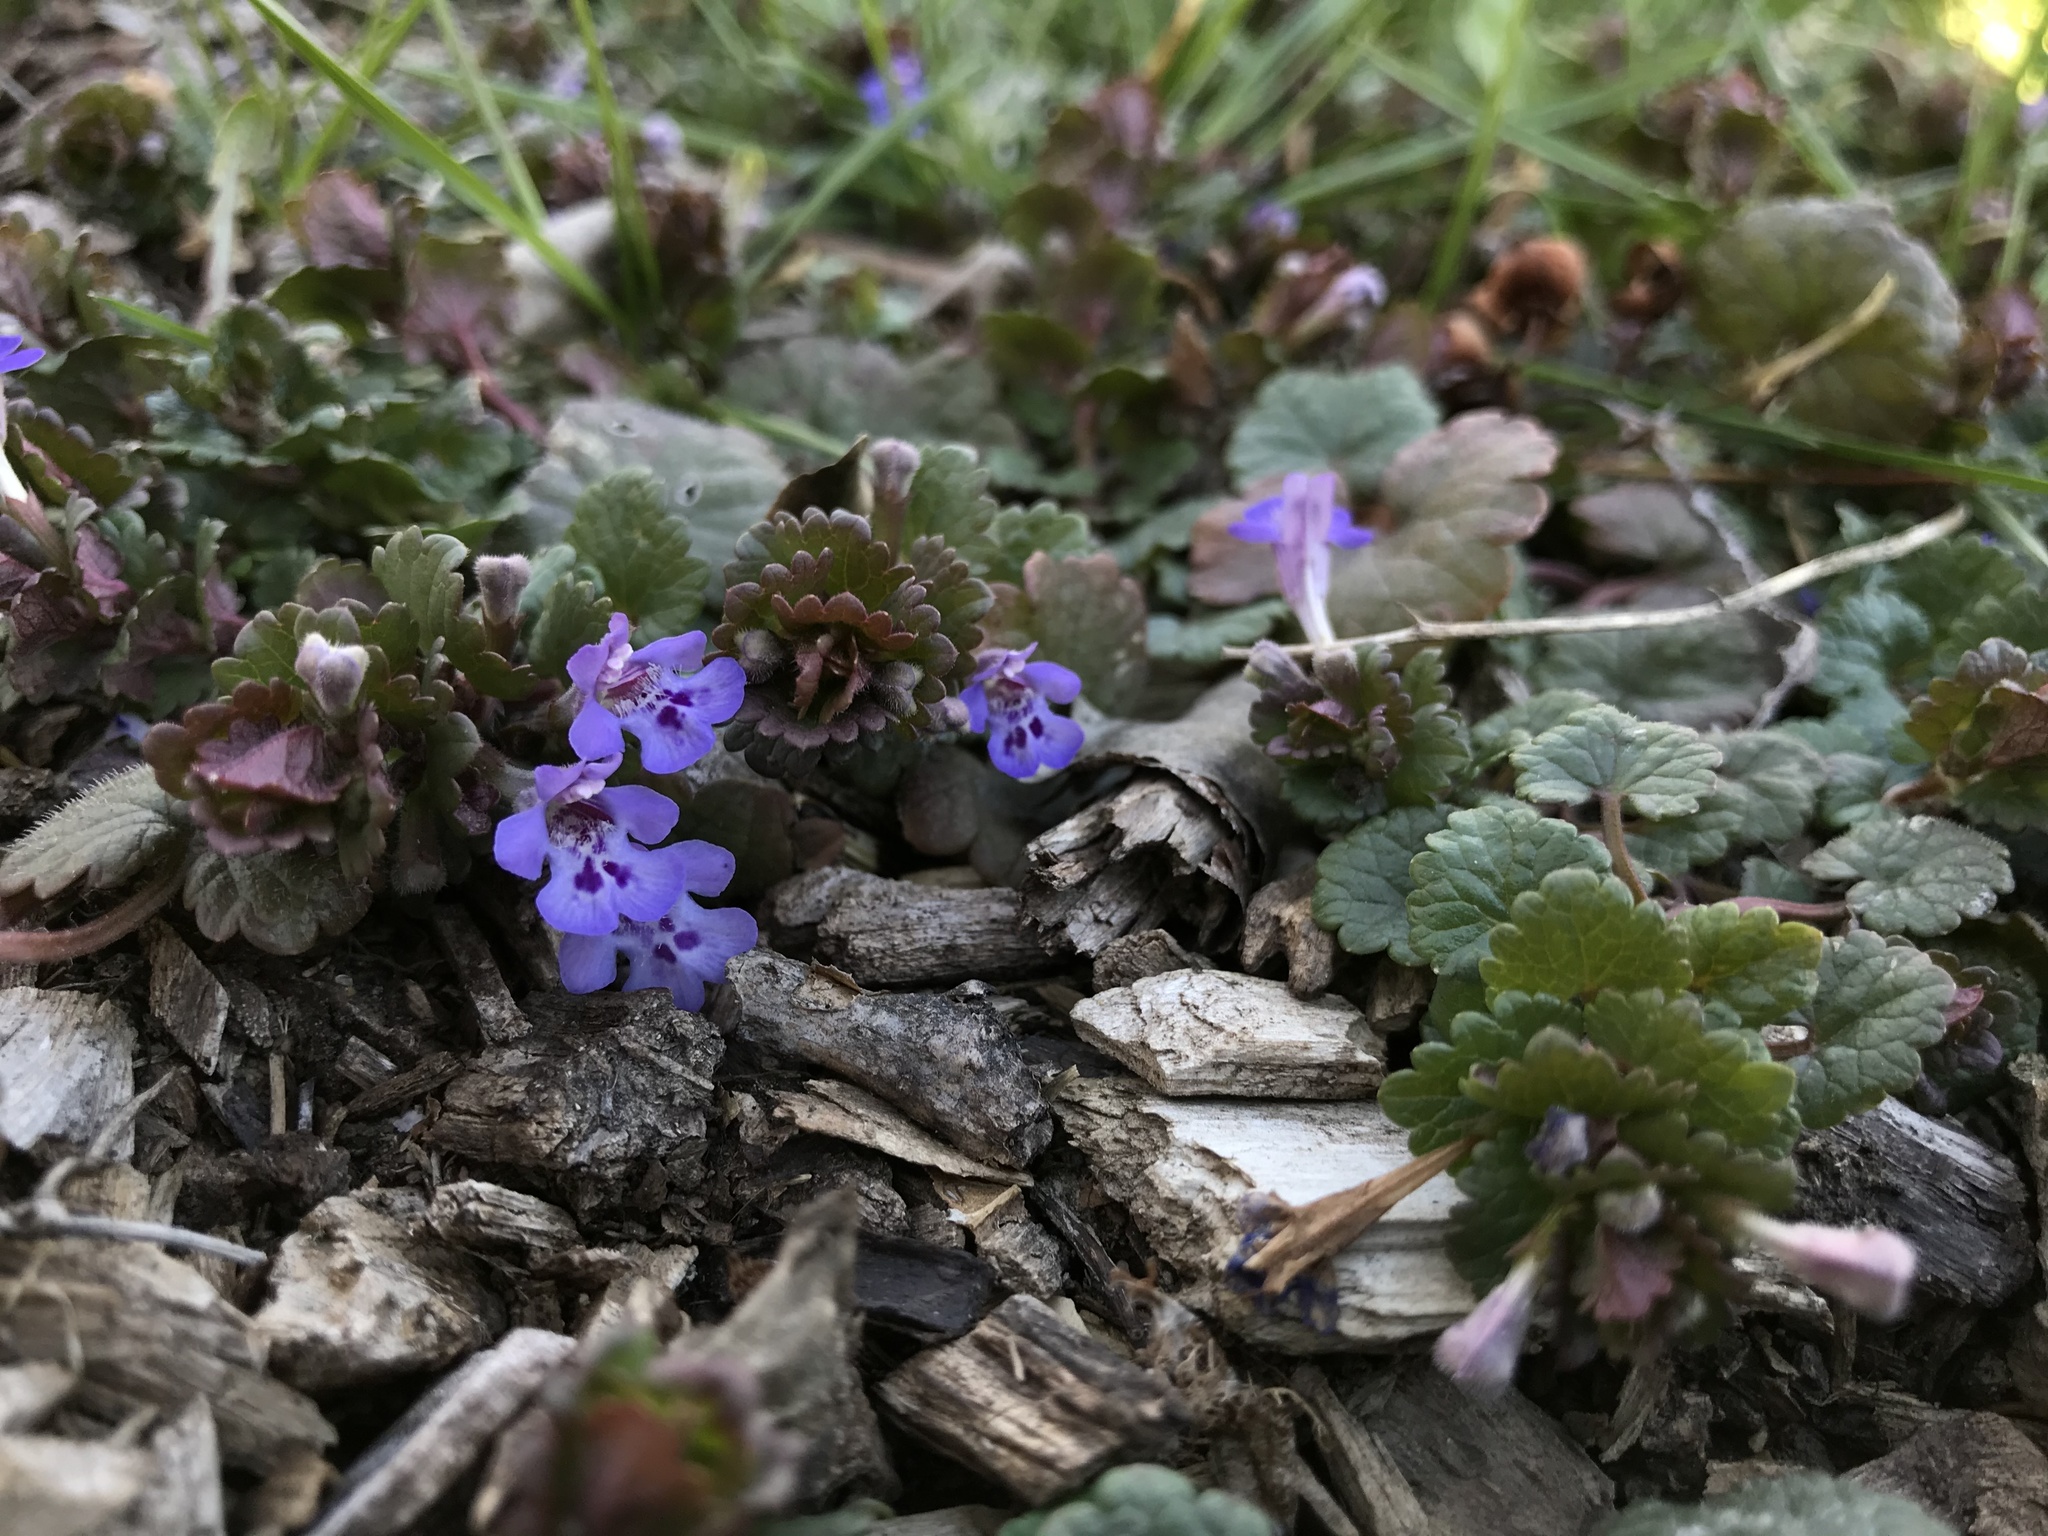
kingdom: Plantae
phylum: Tracheophyta
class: Magnoliopsida
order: Lamiales
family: Lamiaceae
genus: Glechoma
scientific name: Glechoma hederacea
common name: Ground ivy
